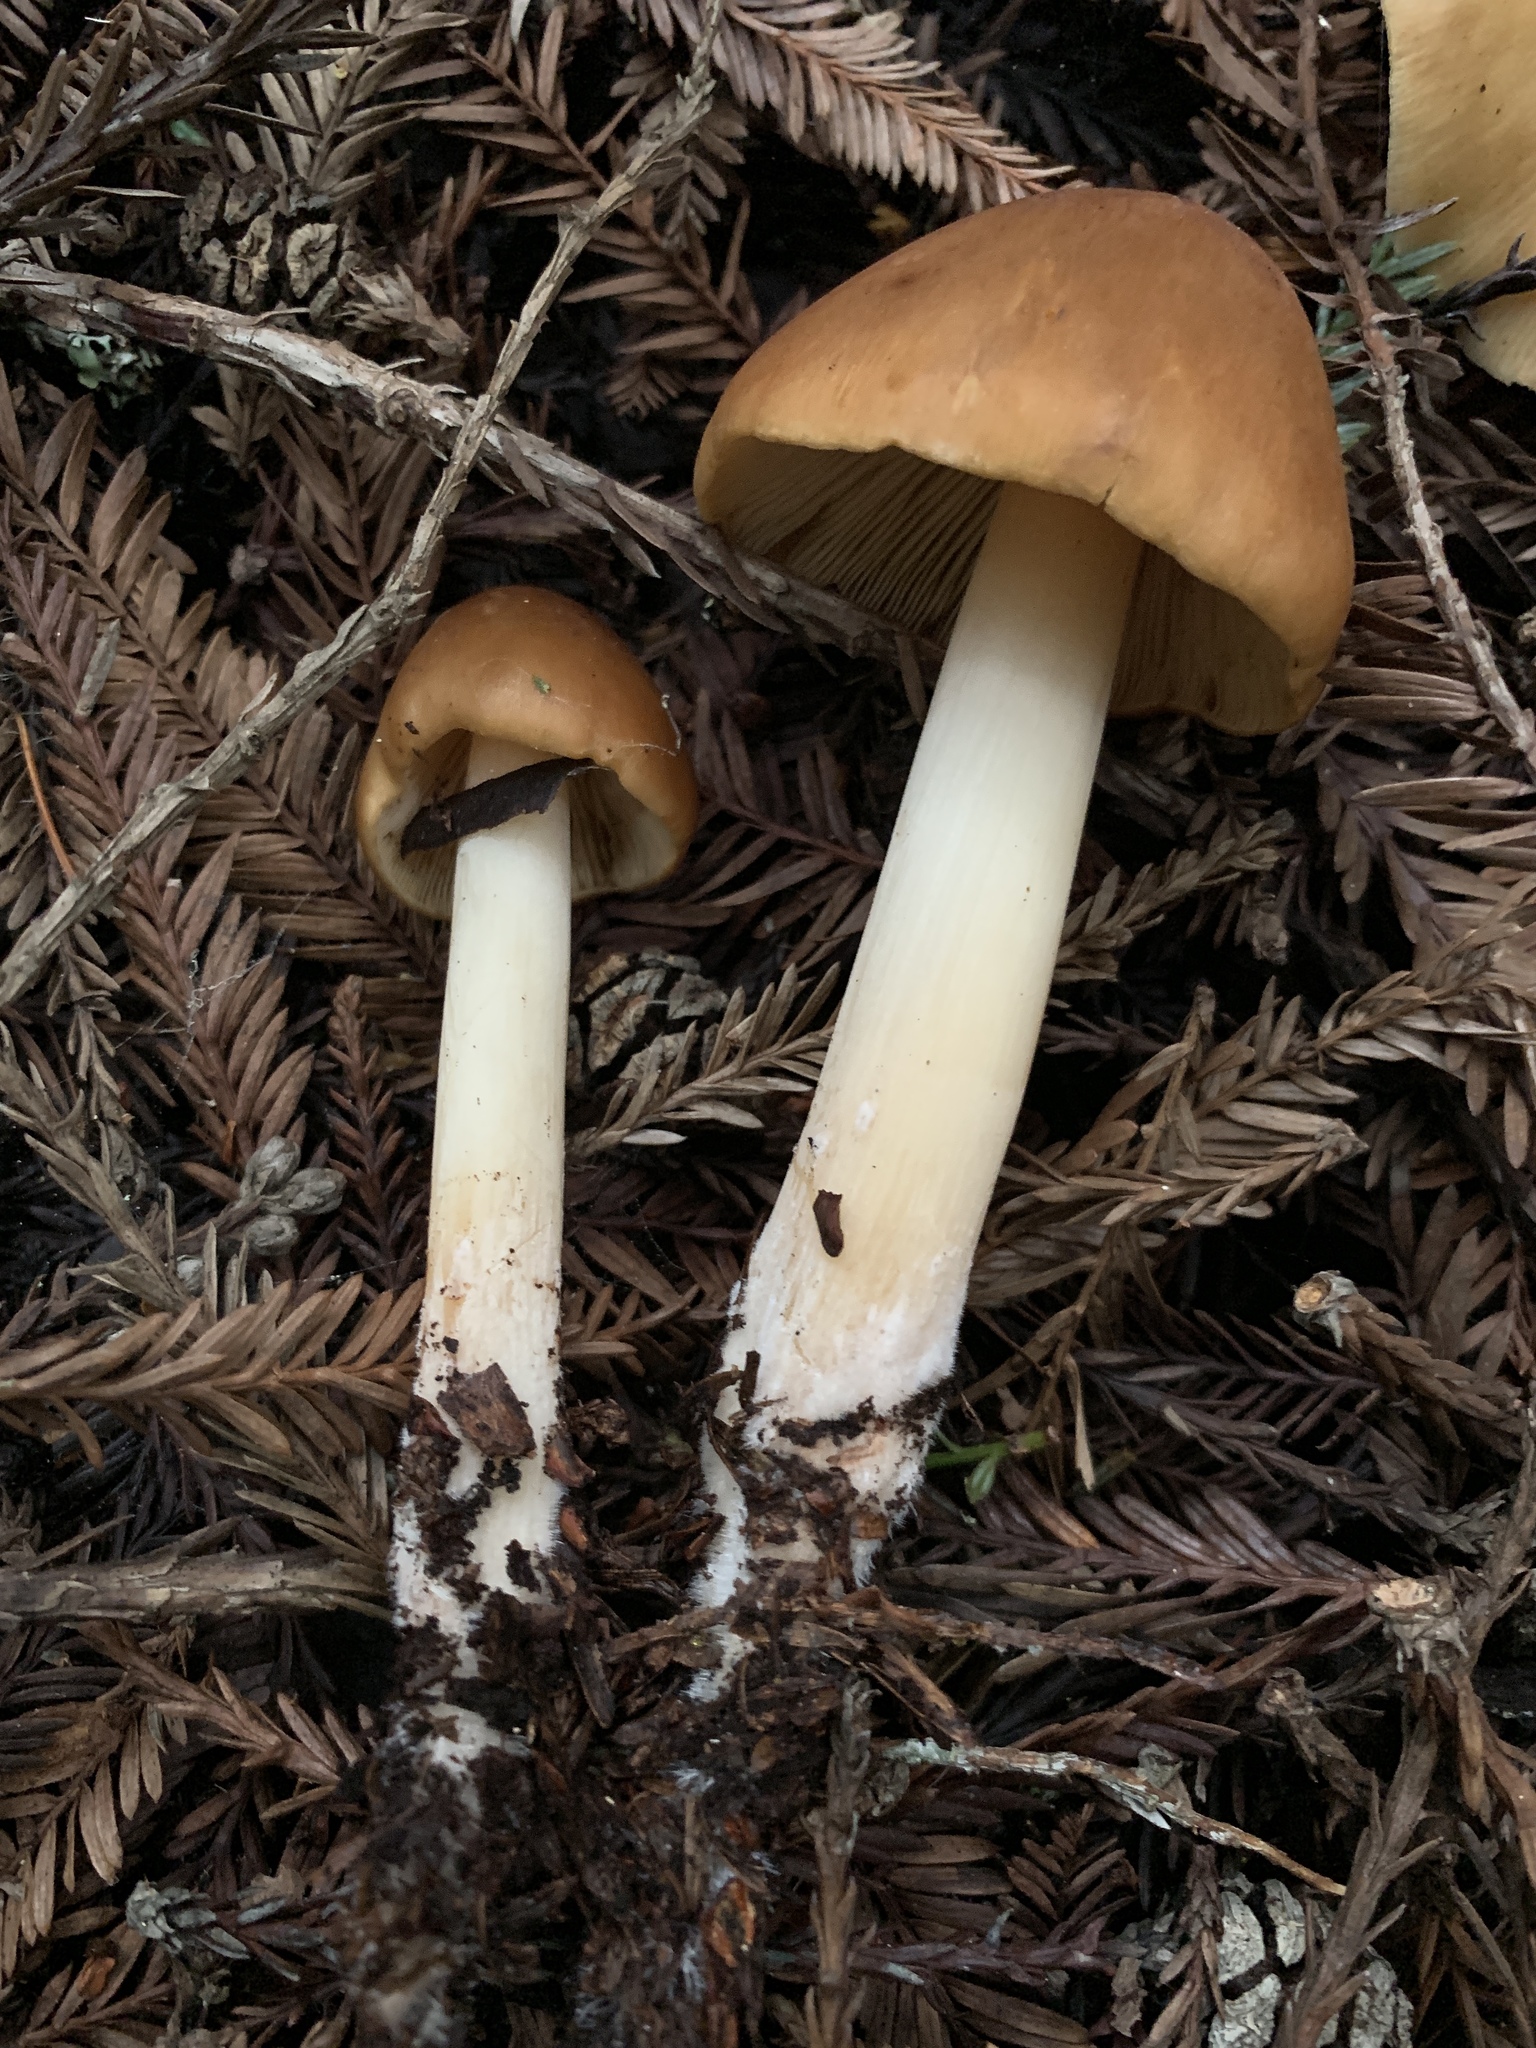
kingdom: Fungi
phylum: Basidiomycota
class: Agaricomycetes
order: Agaricales
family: Tricholomataceae
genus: Caulorhiza
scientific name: Caulorhiza umbonata
